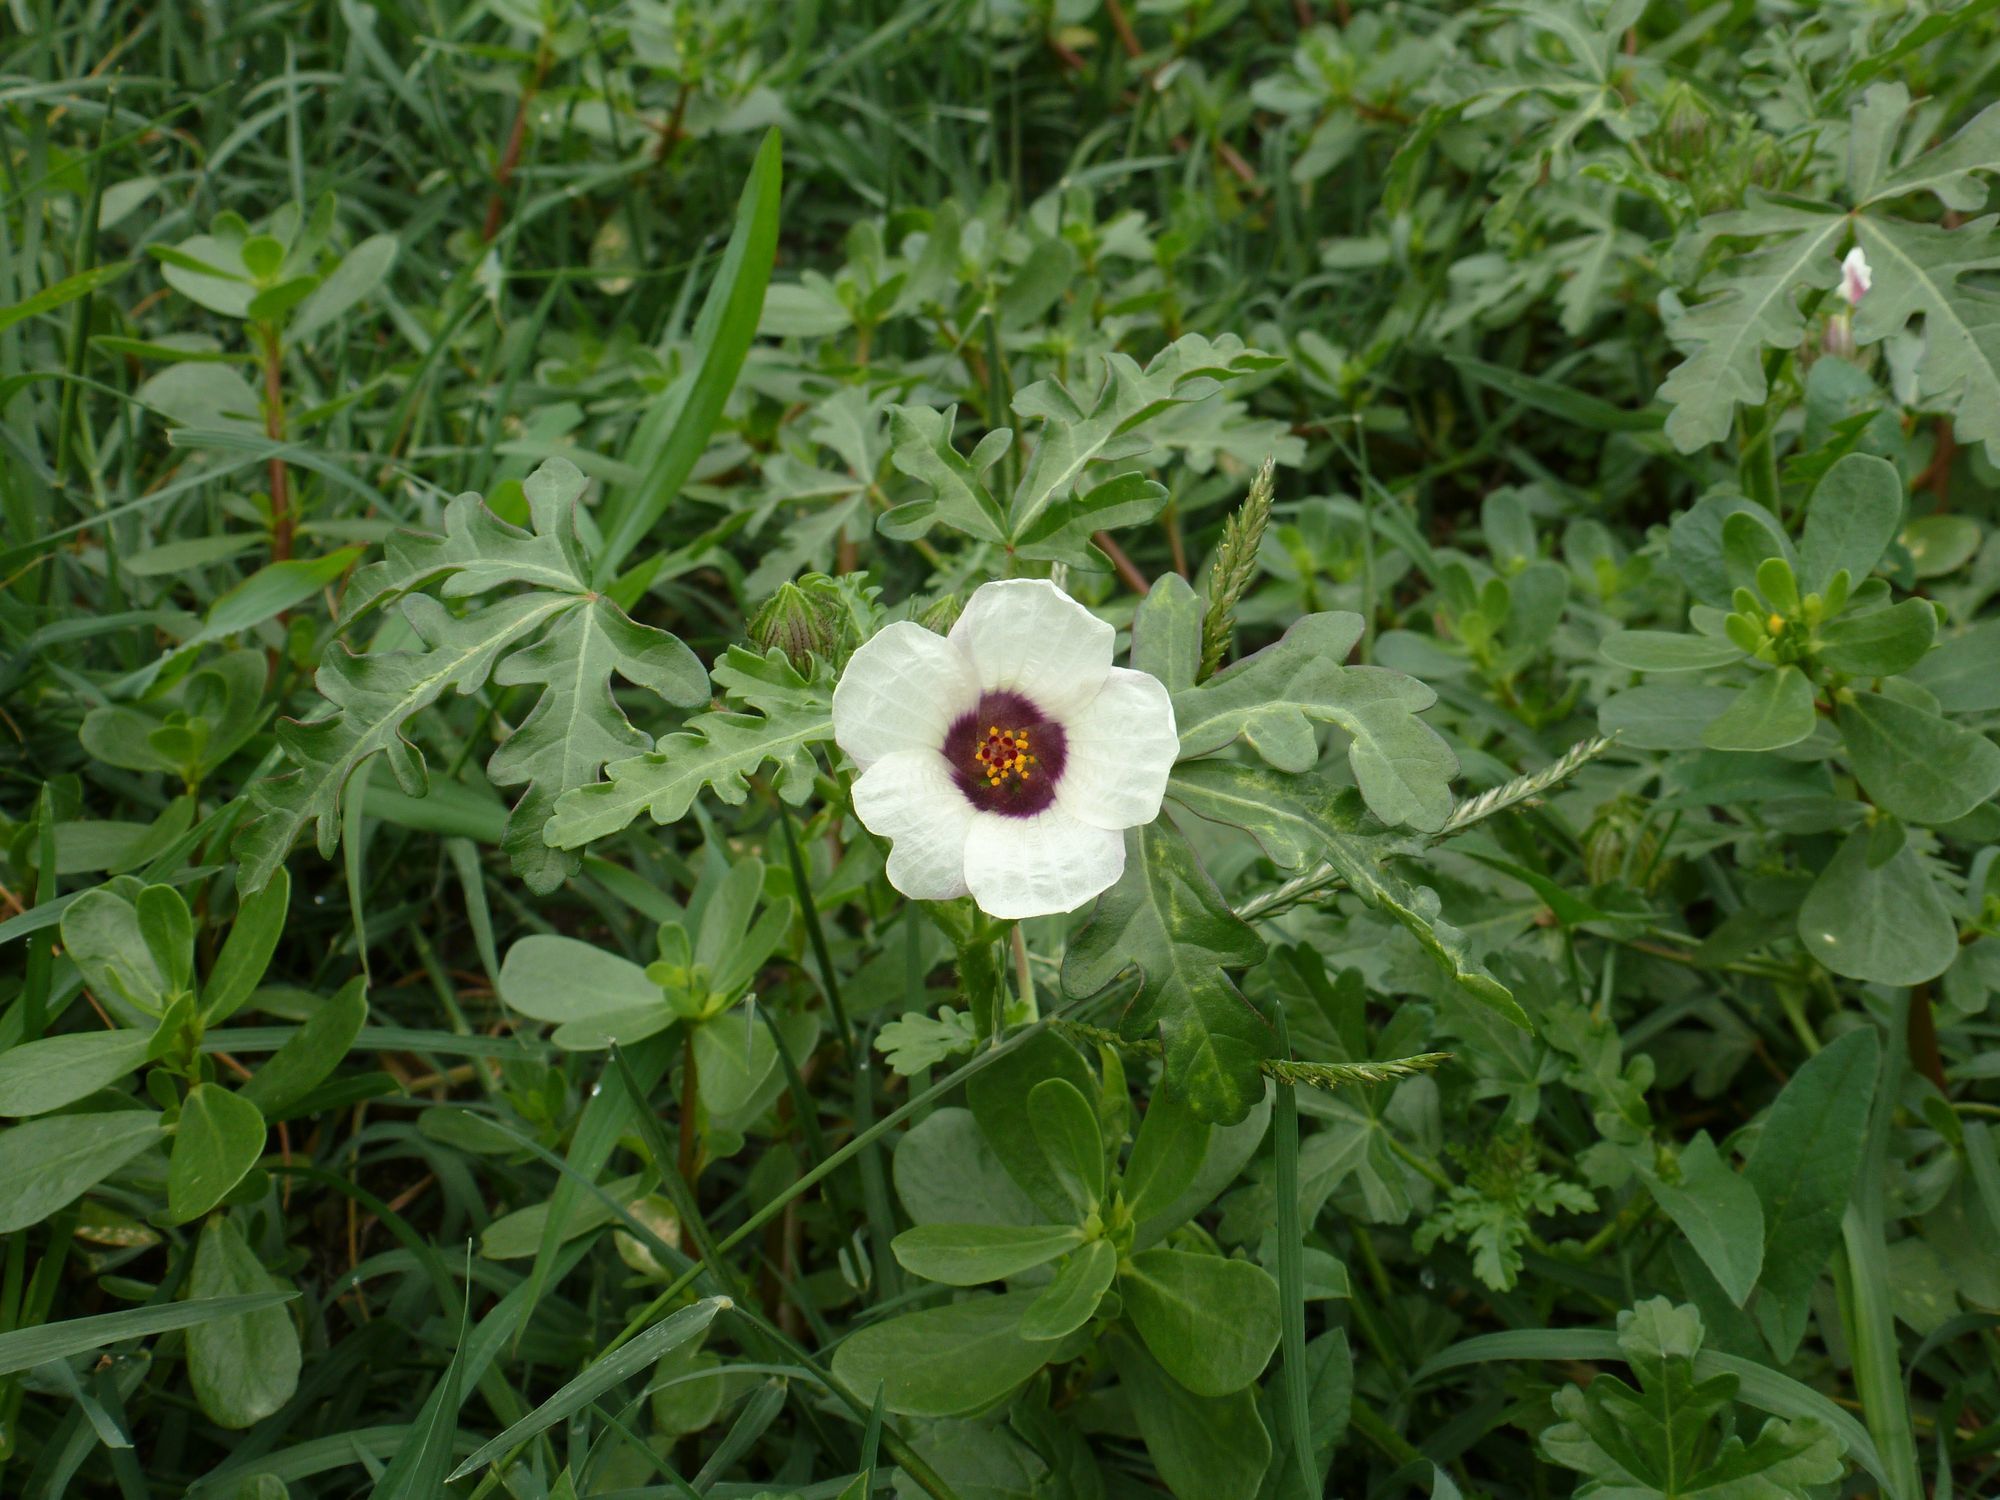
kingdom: Plantae
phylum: Tracheophyta
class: Magnoliopsida
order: Malvales
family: Malvaceae
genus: Hibiscus
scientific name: Hibiscus trionum
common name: Bladder ketmia
